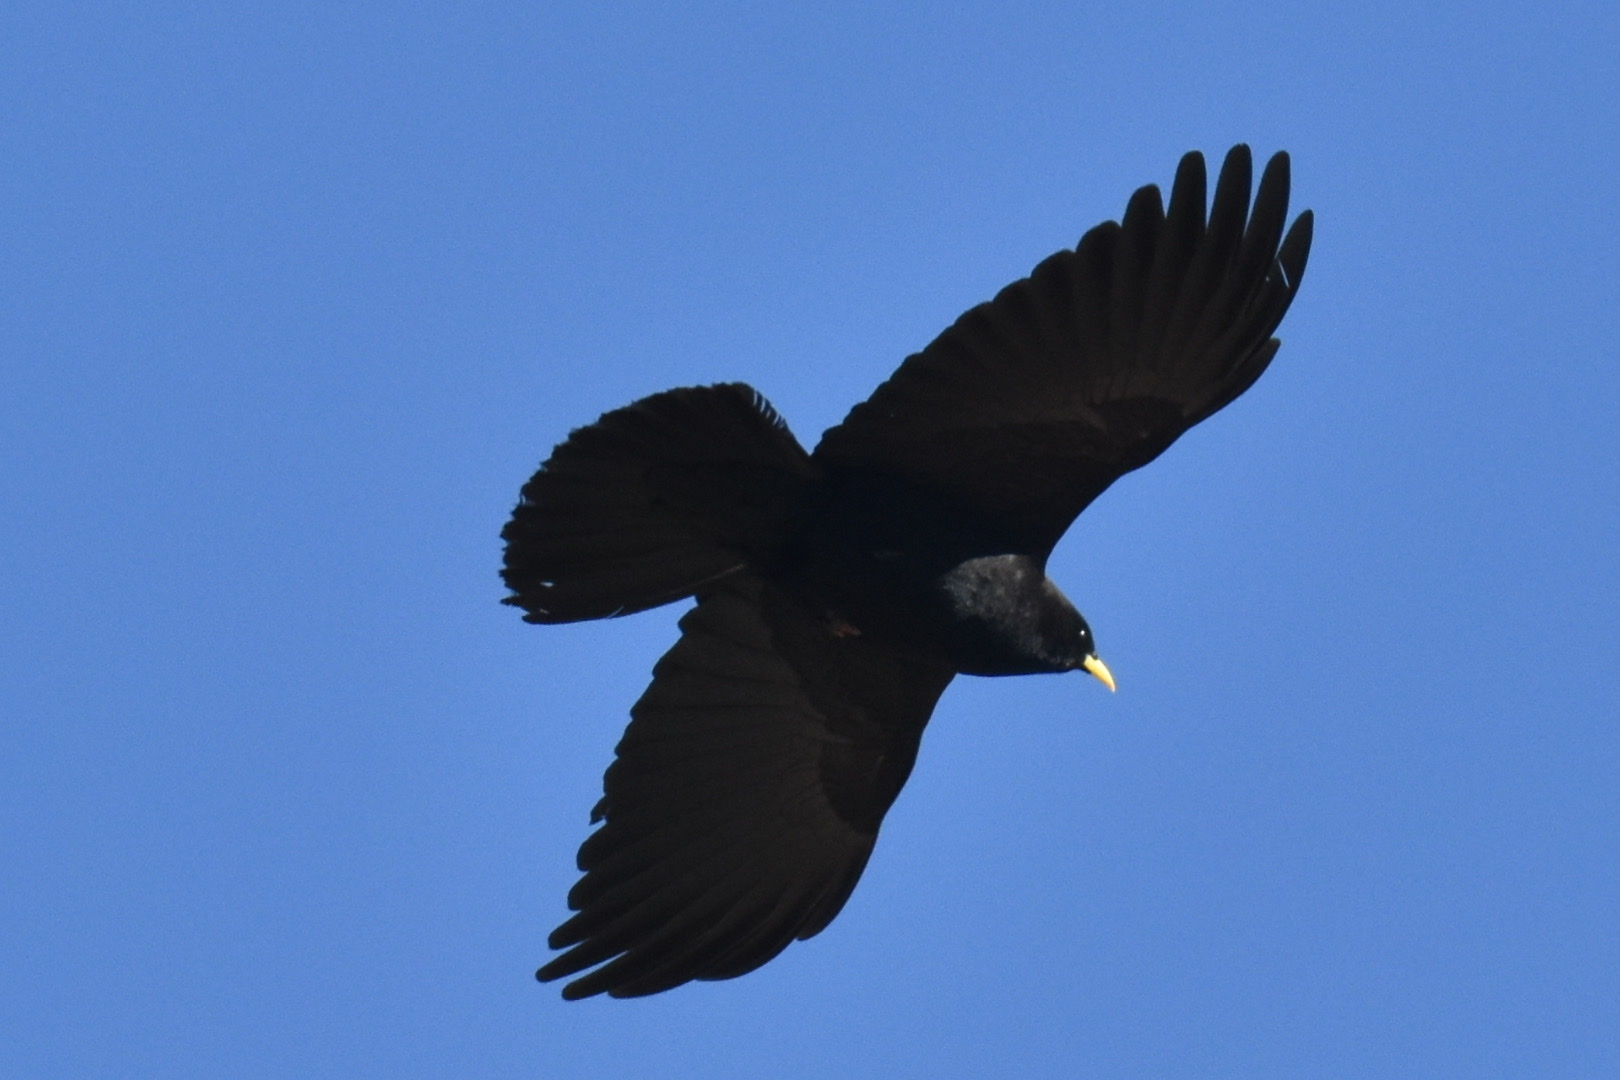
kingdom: Animalia
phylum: Chordata
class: Aves
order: Passeriformes
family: Corvidae
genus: Pyrrhocorax
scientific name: Pyrrhocorax graculus
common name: Alpine chough
